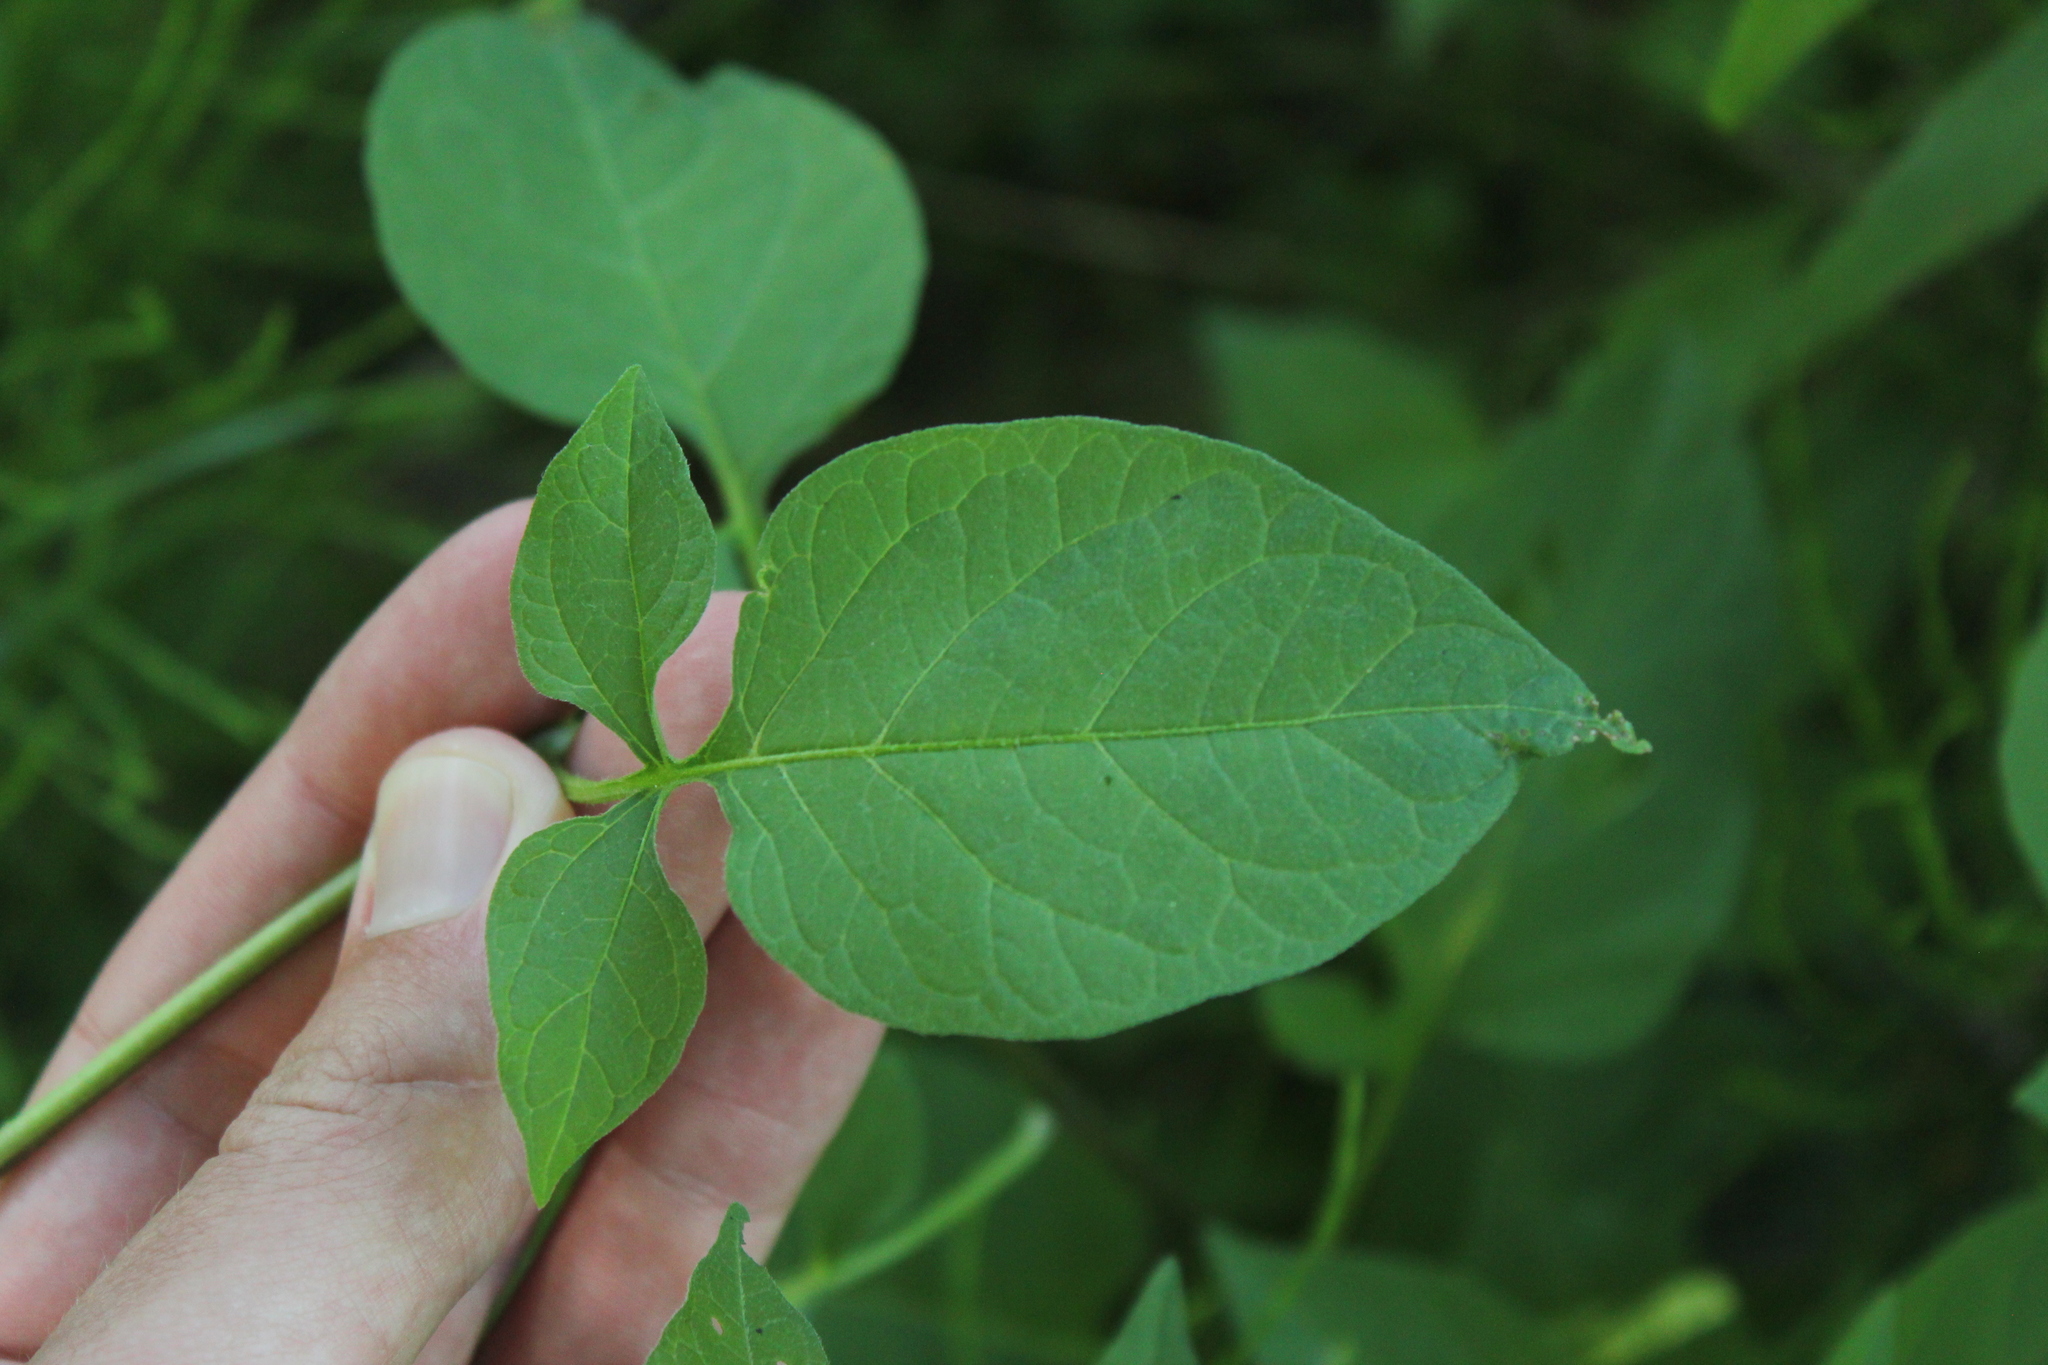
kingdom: Plantae
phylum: Tracheophyta
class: Magnoliopsida
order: Solanales
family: Solanaceae
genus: Solanum
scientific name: Solanum dulcamara
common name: Climbing nightshade
